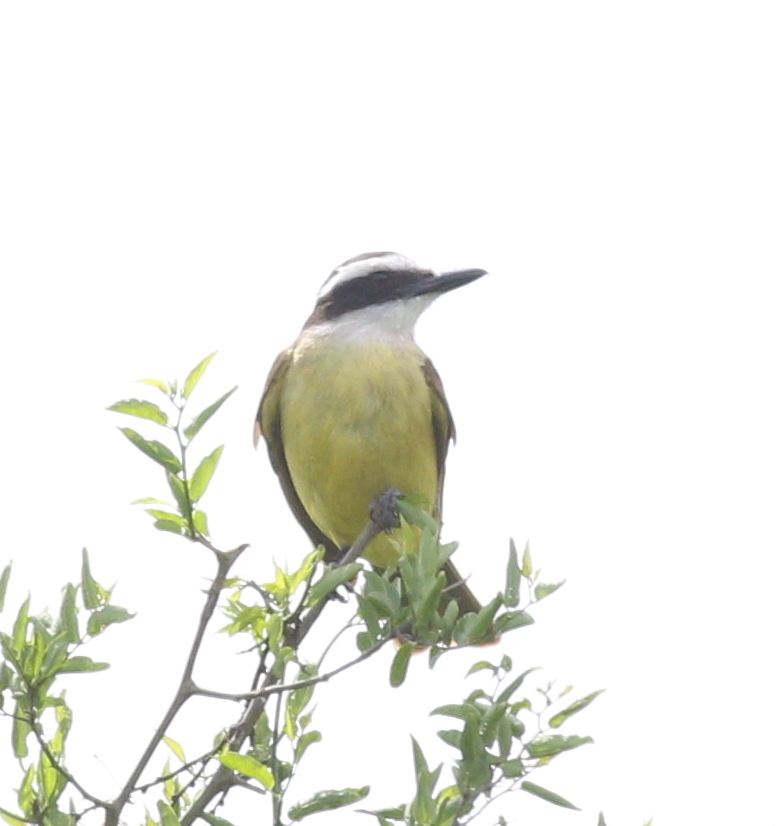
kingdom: Animalia
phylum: Chordata
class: Aves
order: Passeriformes
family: Tyrannidae
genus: Pitangus
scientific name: Pitangus sulphuratus
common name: Great kiskadee
